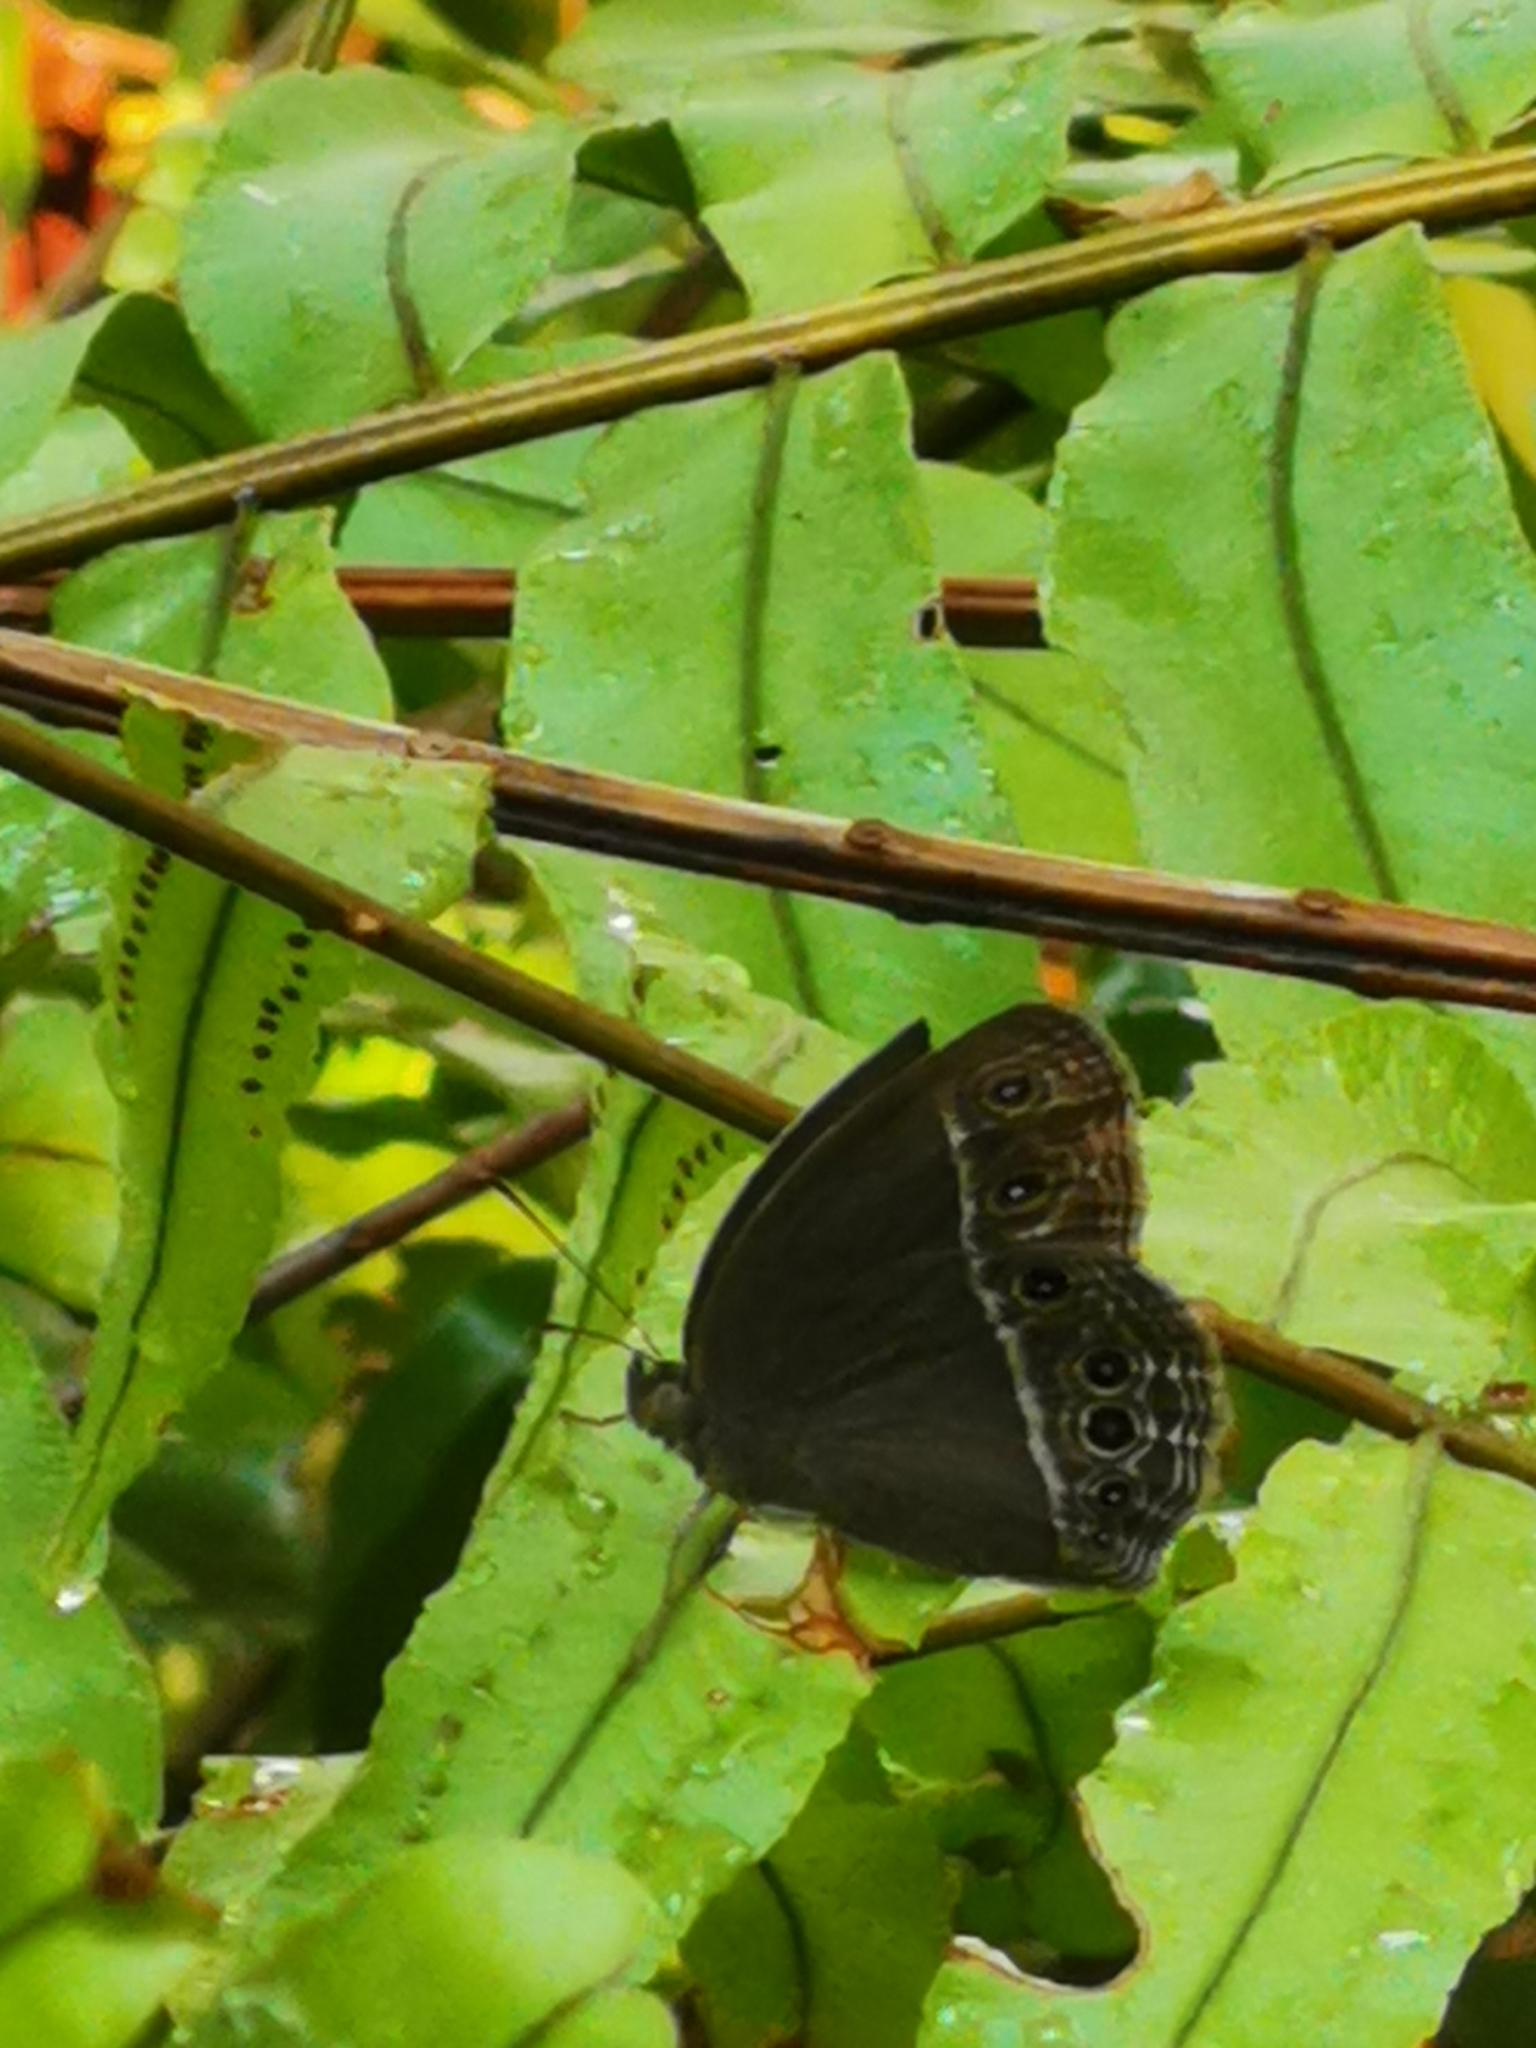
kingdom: Animalia
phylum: Arthropoda
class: Insecta
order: Lepidoptera
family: Nymphalidae
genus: Mycalesis
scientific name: Mycalesis mineus
